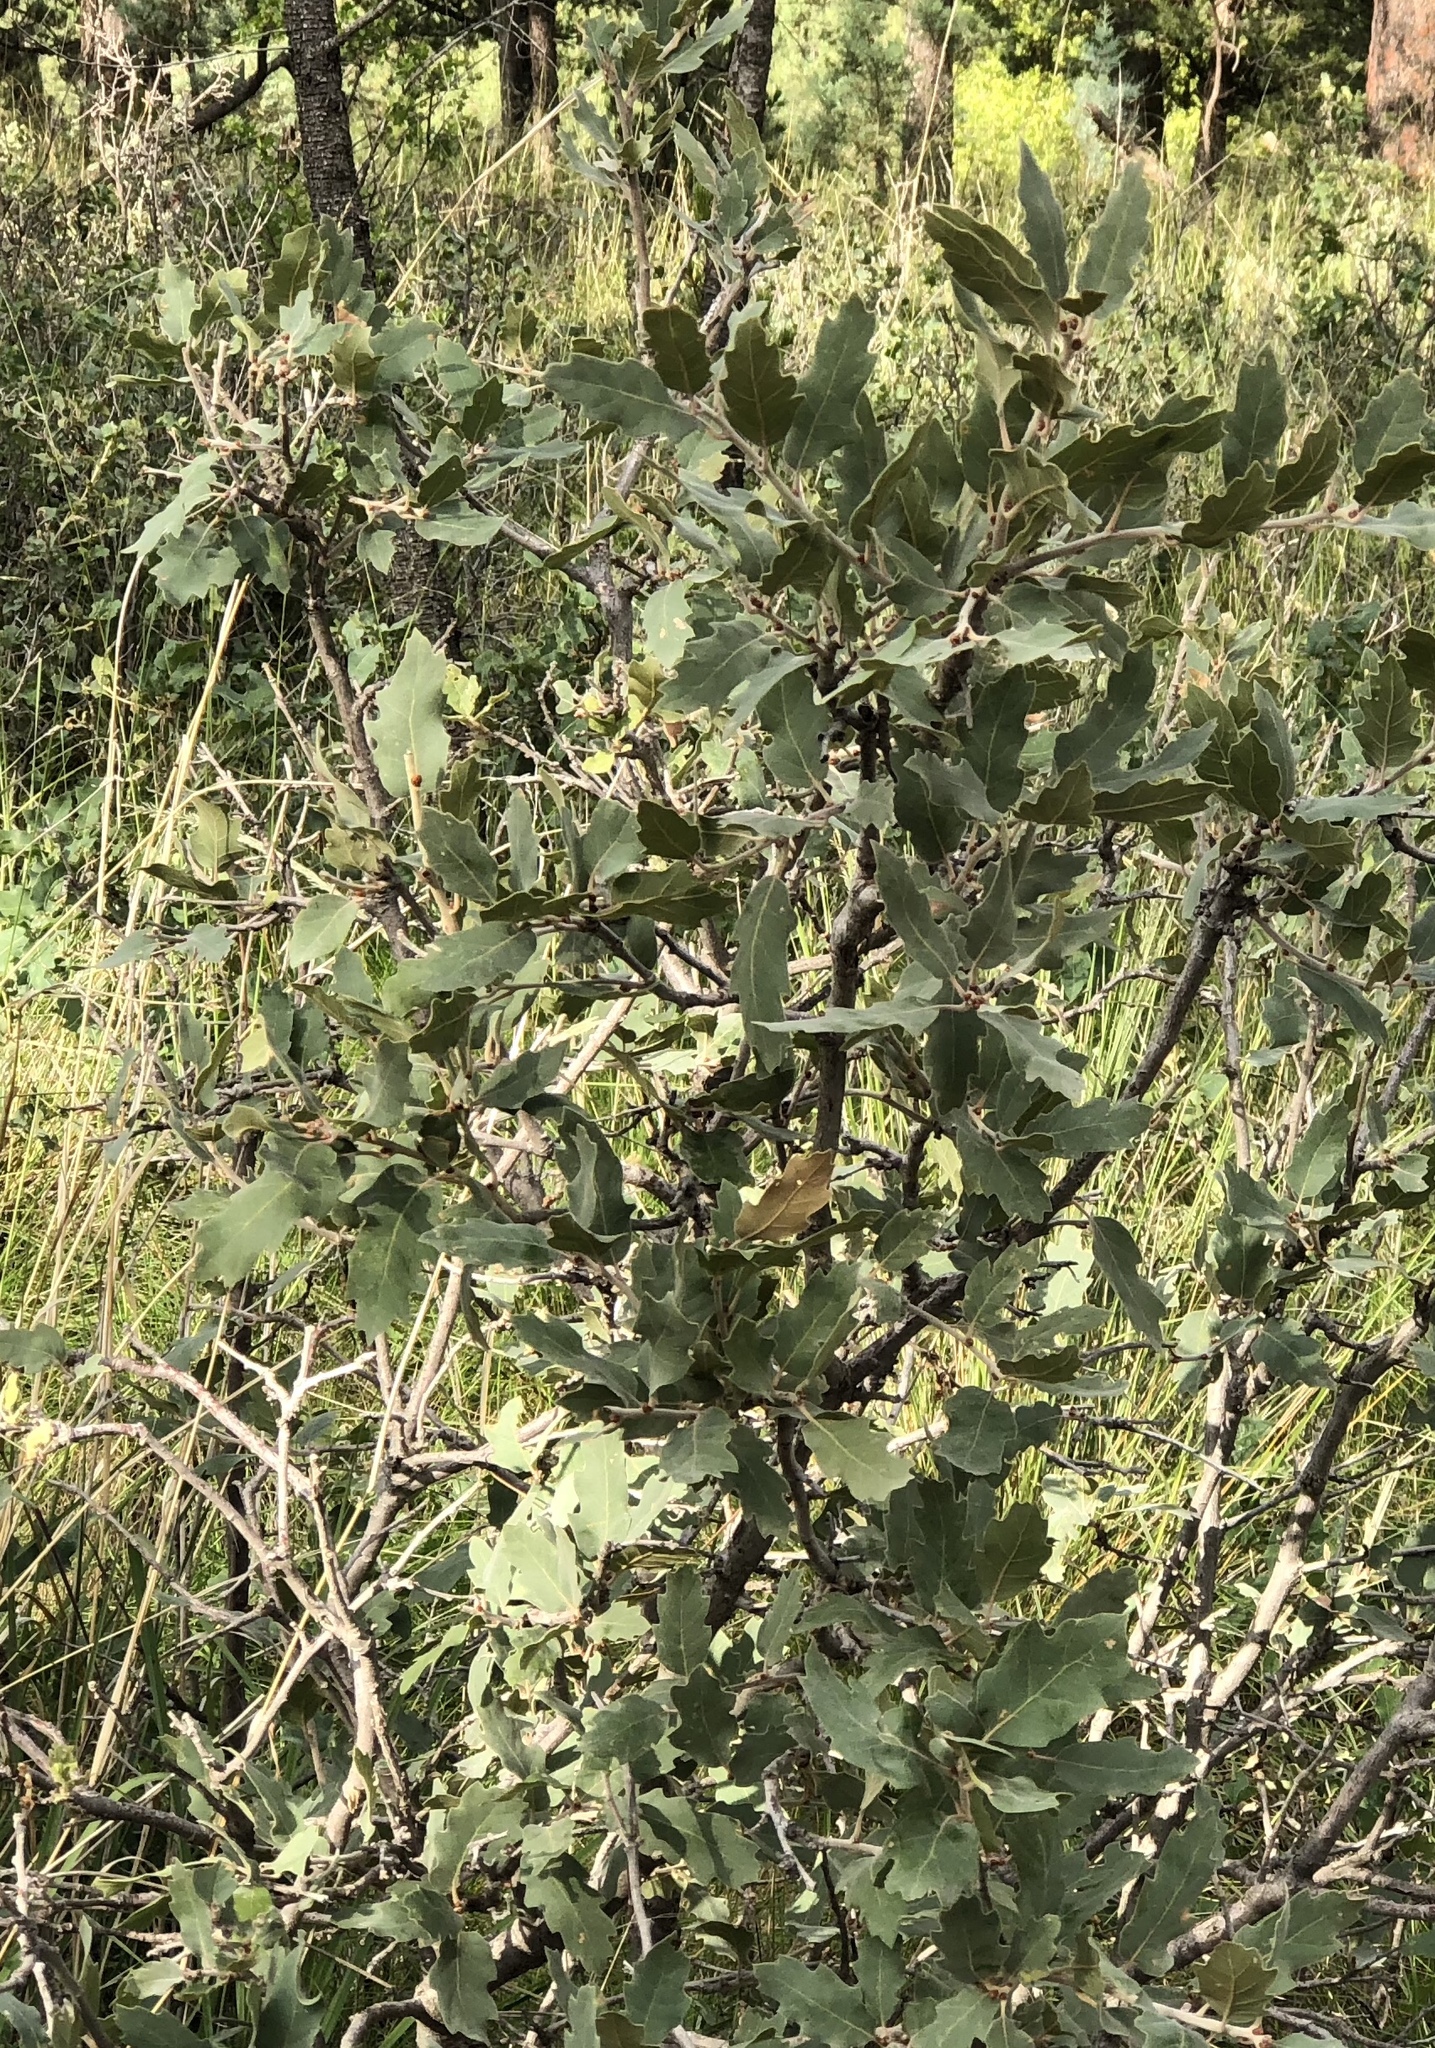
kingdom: Plantae
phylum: Tracheophyta
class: Magnoliopsida
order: Fagales
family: Fagaceae
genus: Quercus
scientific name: Quercus undulata
